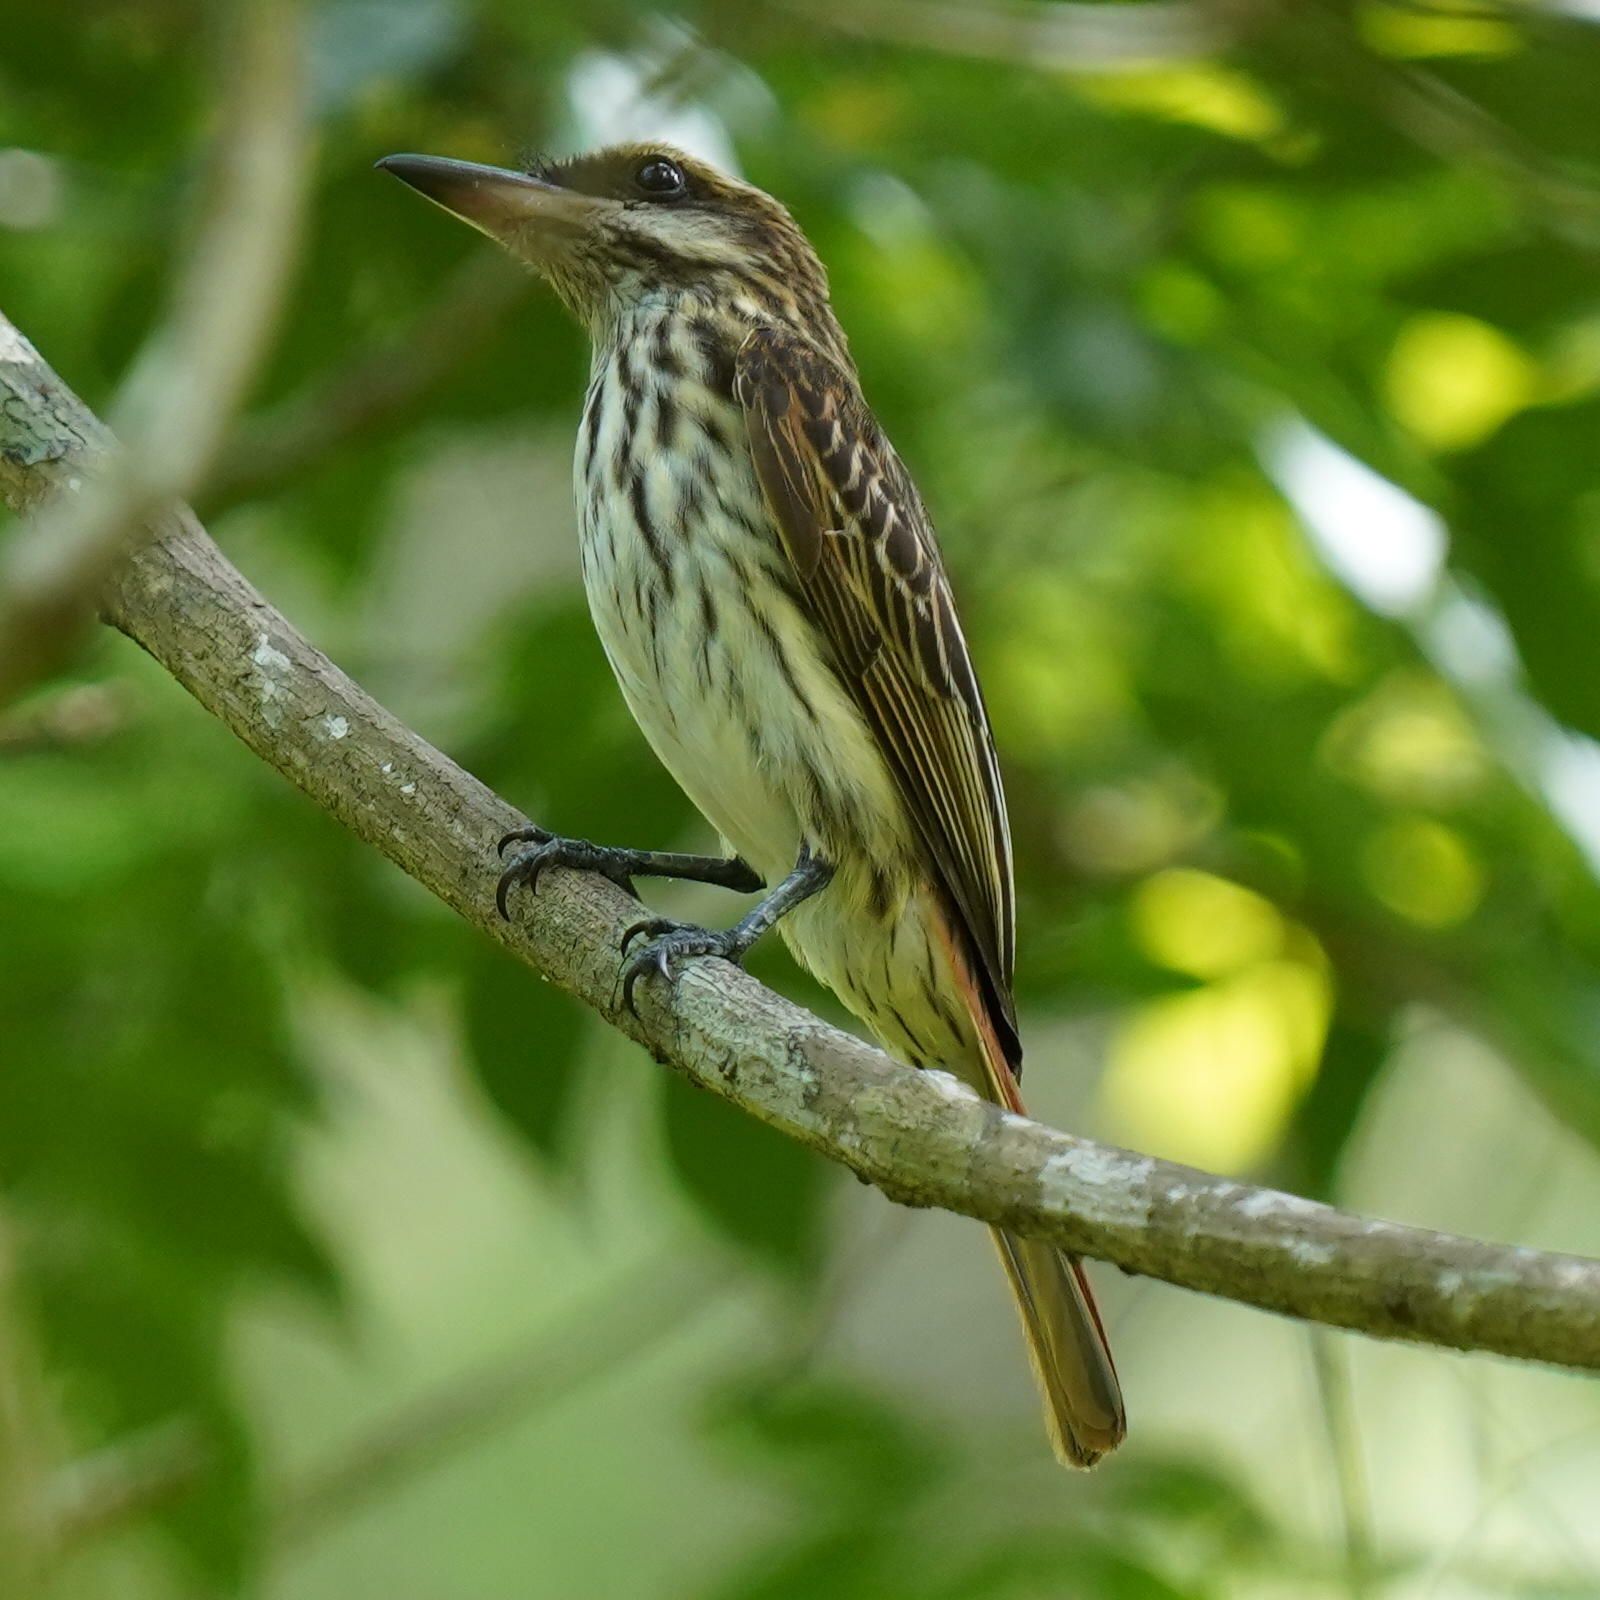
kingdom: Animalia
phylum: Chordata
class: Aves
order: Passeriformes
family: Tyrannidae
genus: Myiodynastes
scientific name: Myiodynastes maculatus
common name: Streaked flycatcher
